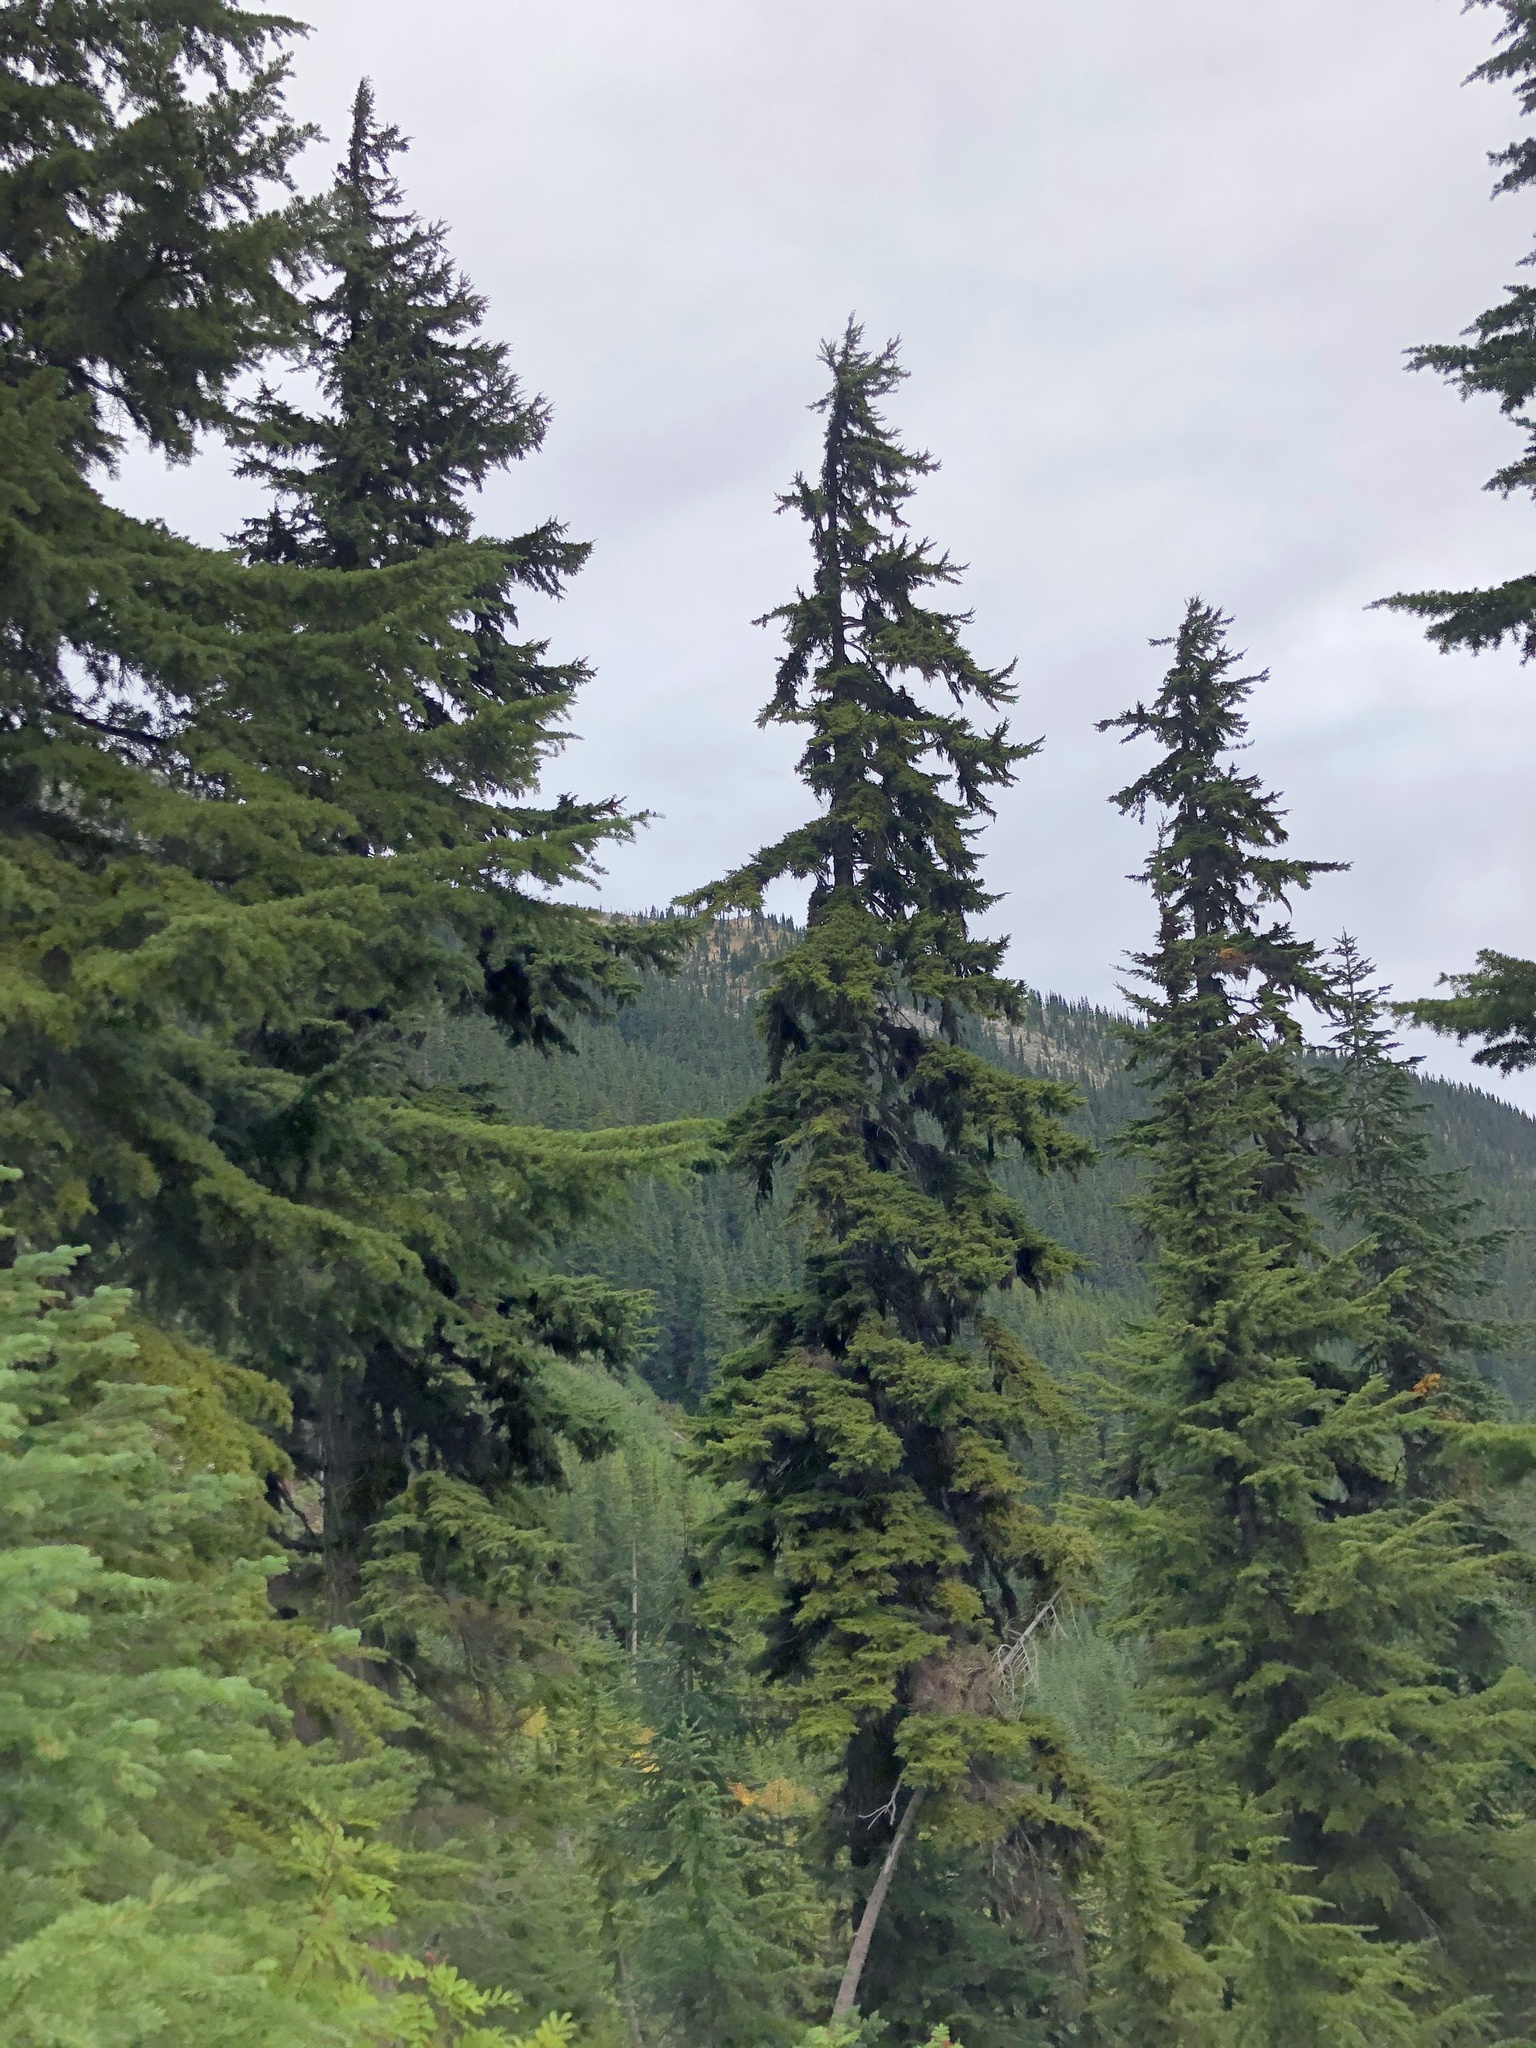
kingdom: Plantae
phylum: Tracheophyta
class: Pinopsida
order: Pinales
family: Pinaceae
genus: Tsuga
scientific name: Tsuga mertensiana
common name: Mountain hemlock
